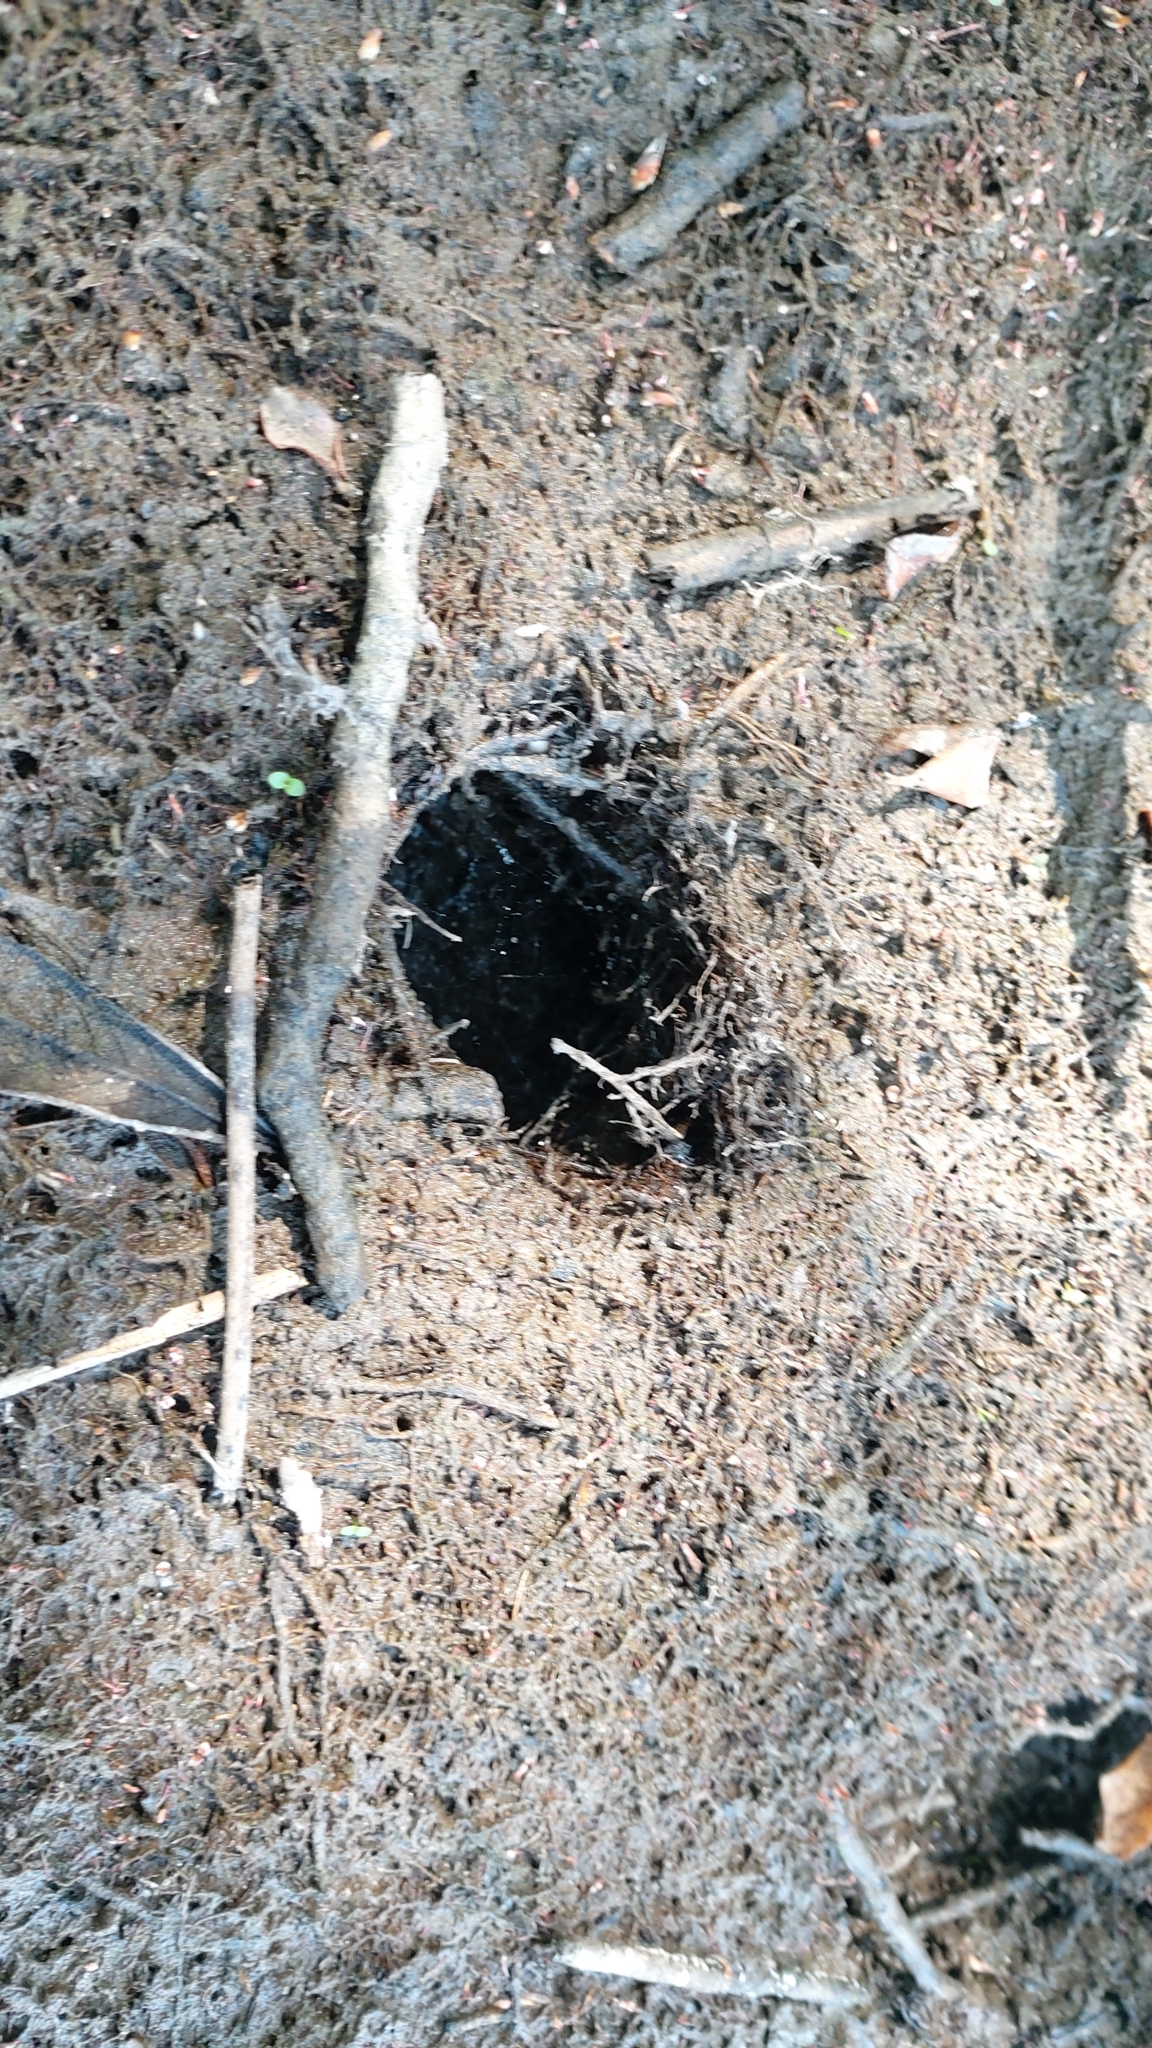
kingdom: Animalia
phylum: Arthropoda
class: Malacostraca
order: Decapoda
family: Cambaridae
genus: Procambarus
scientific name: Procambarus clarkii
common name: Red swamp crayfish
